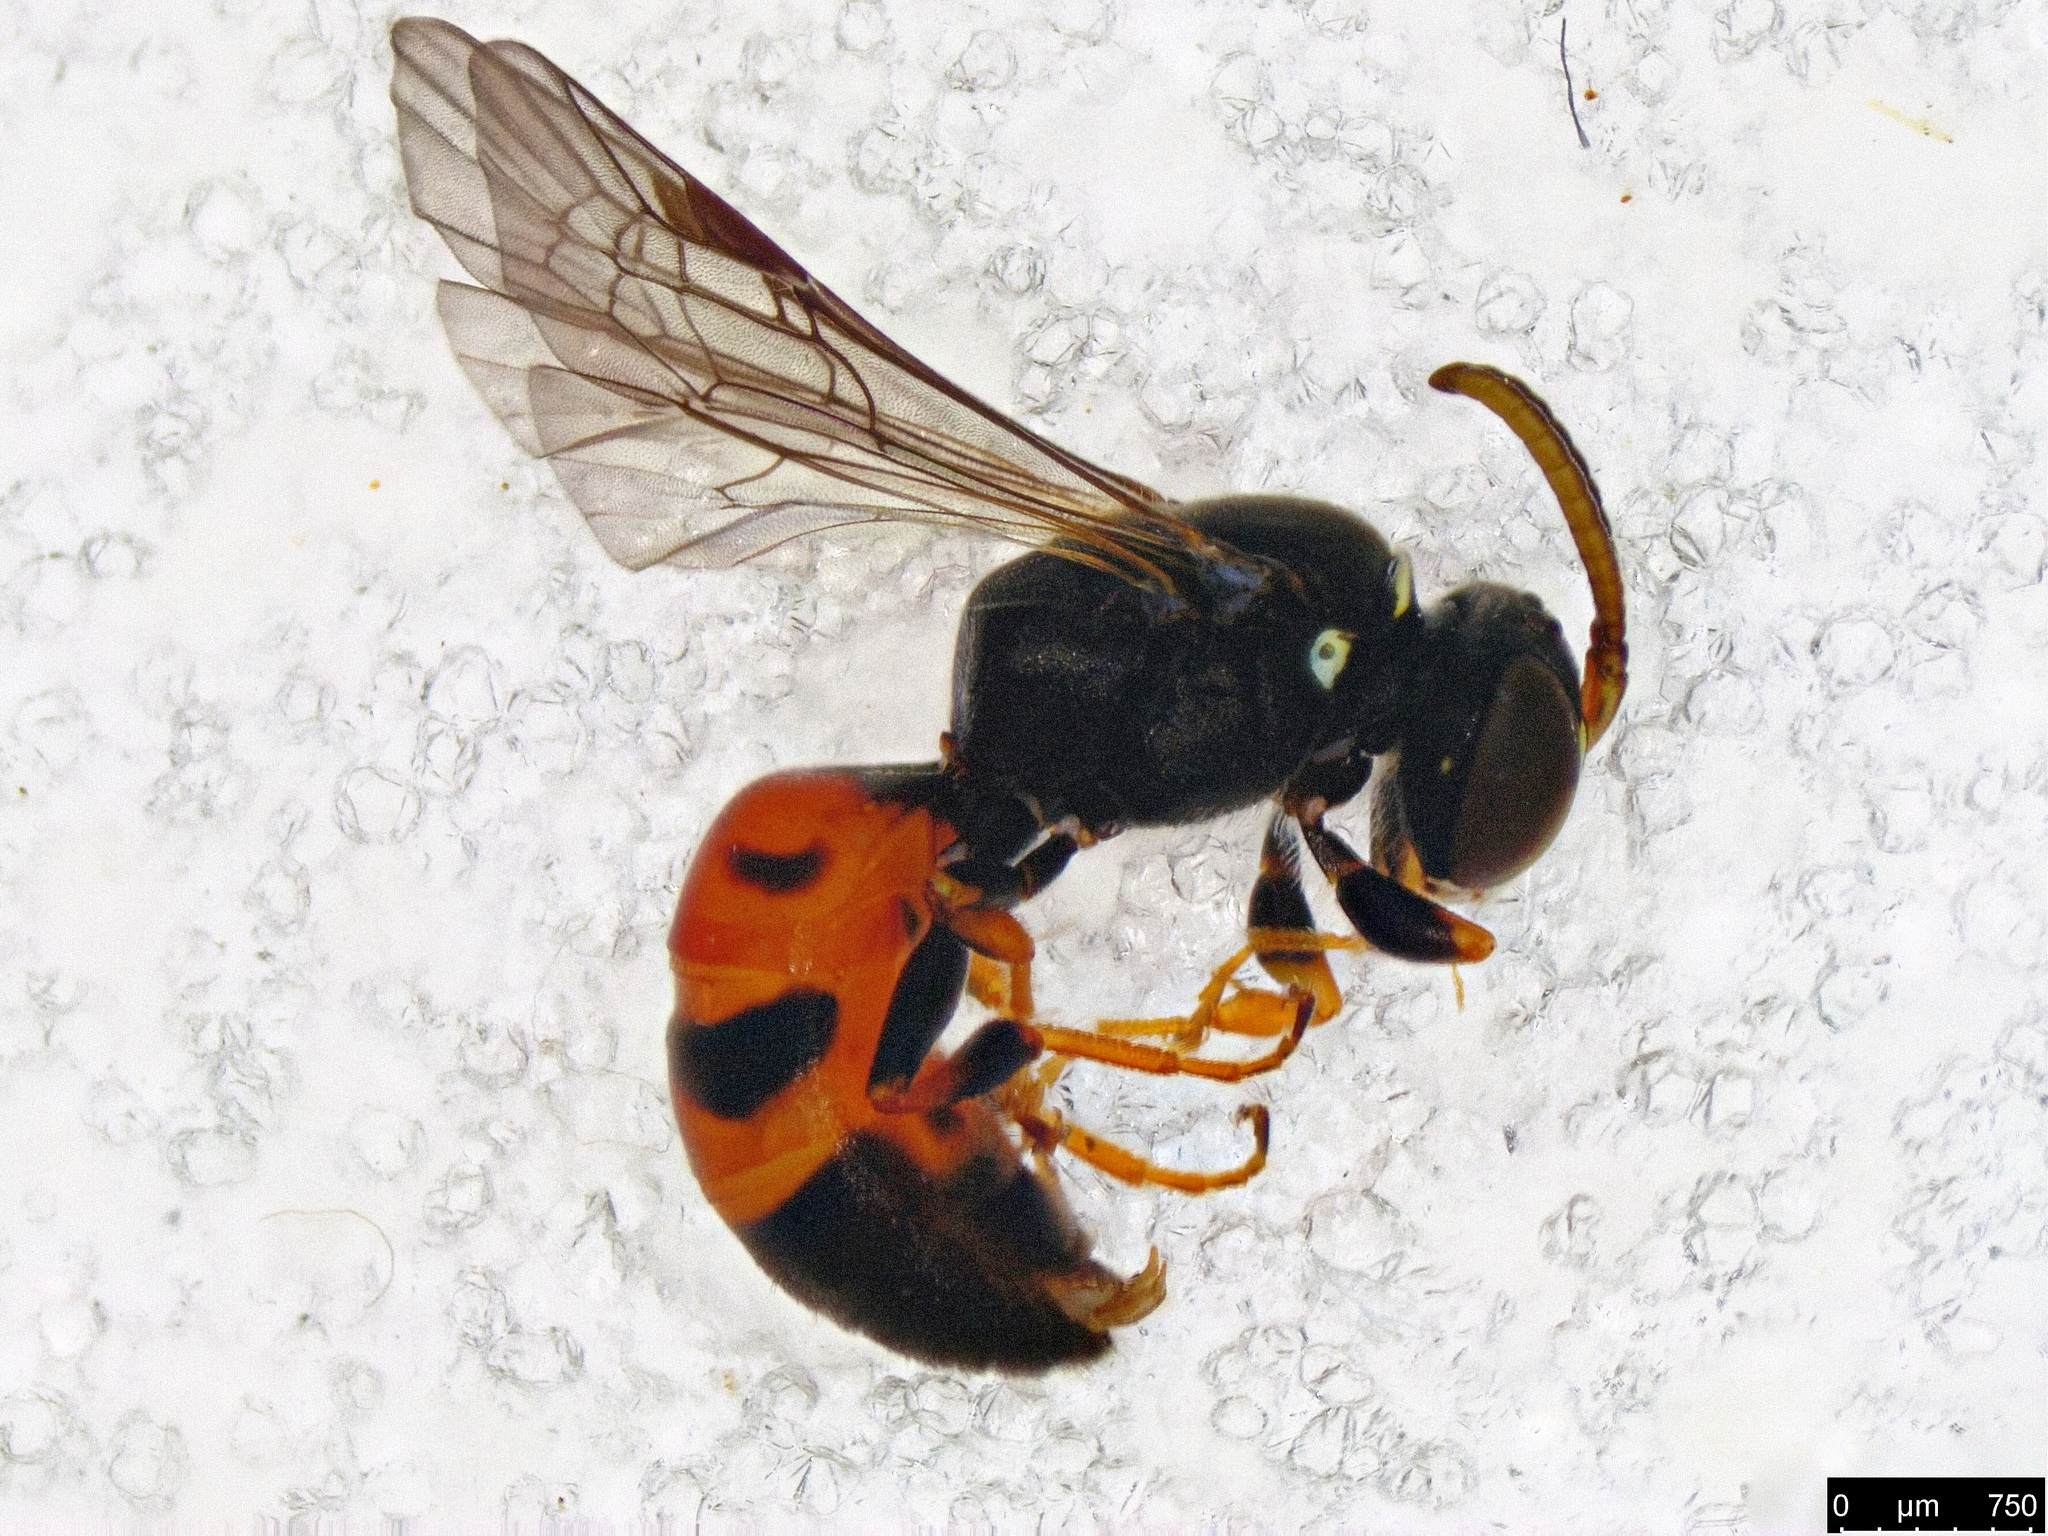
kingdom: Animalia
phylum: Arthropoda
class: Insecta
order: Hymenoptera
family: Colletidae
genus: Hylaeus
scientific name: Hylaeus littleri
